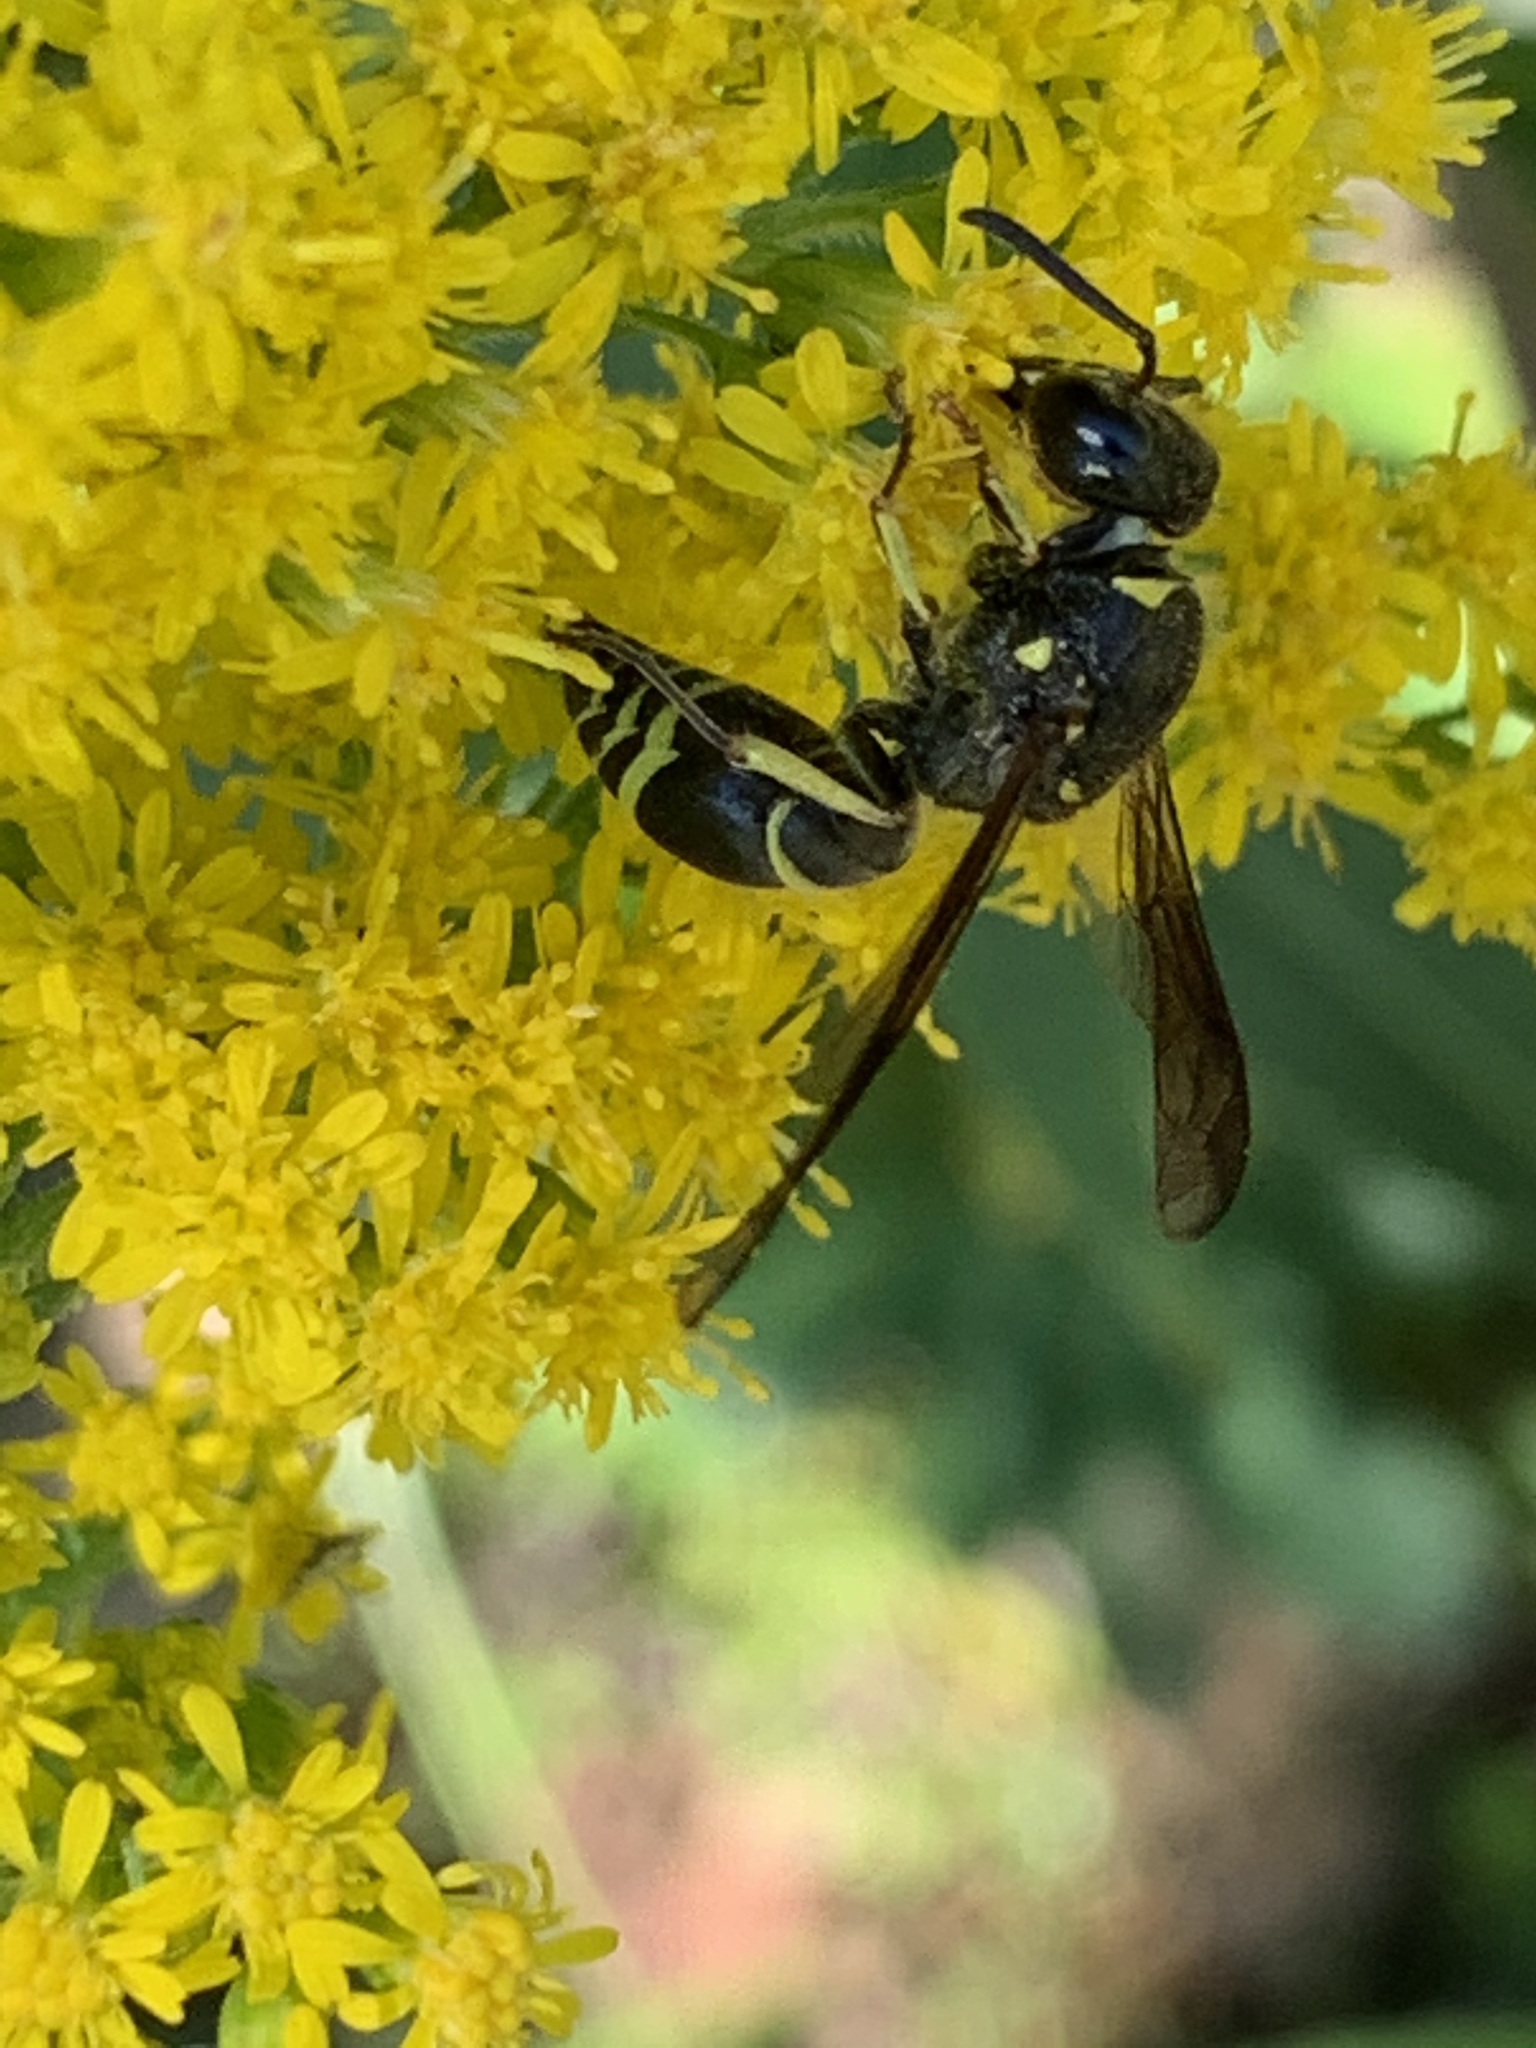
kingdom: Animalia
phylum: Arthropoda
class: Insecta
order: Hymenoptera
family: Vespidae
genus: Ancistrocerus
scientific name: Ancistrocerus
